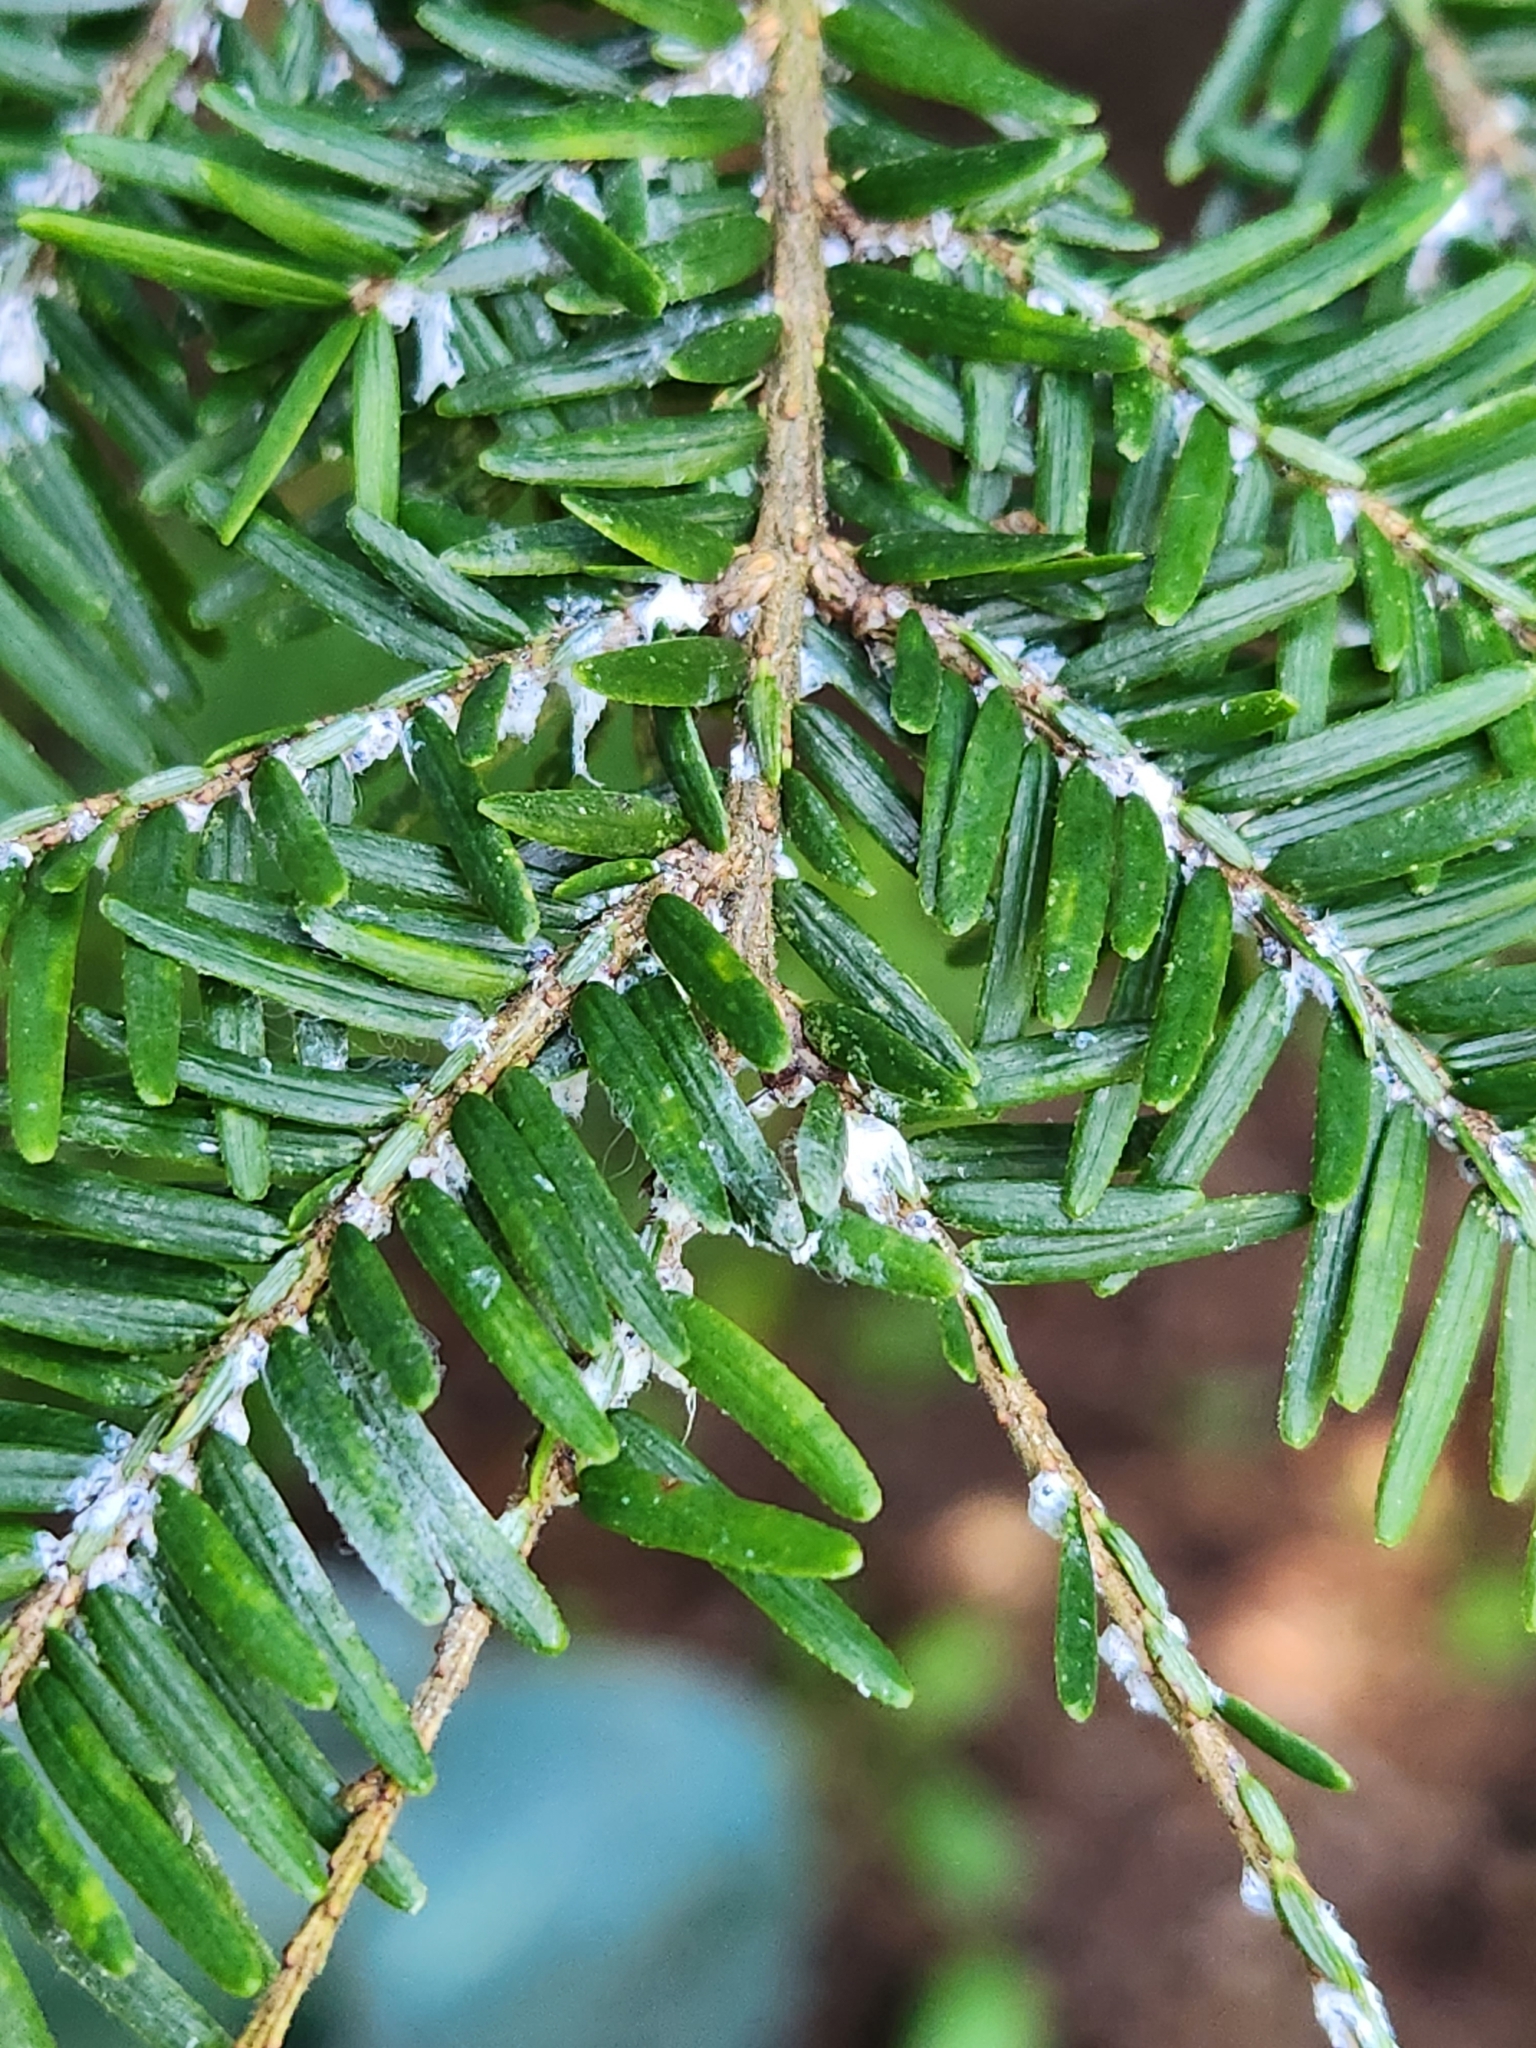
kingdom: Animalia
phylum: Arthropoda
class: Insecta
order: Hemiptera
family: Adelgidae
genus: Adelges
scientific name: Adelges tsugae
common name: Hemlock woolly adelgid
